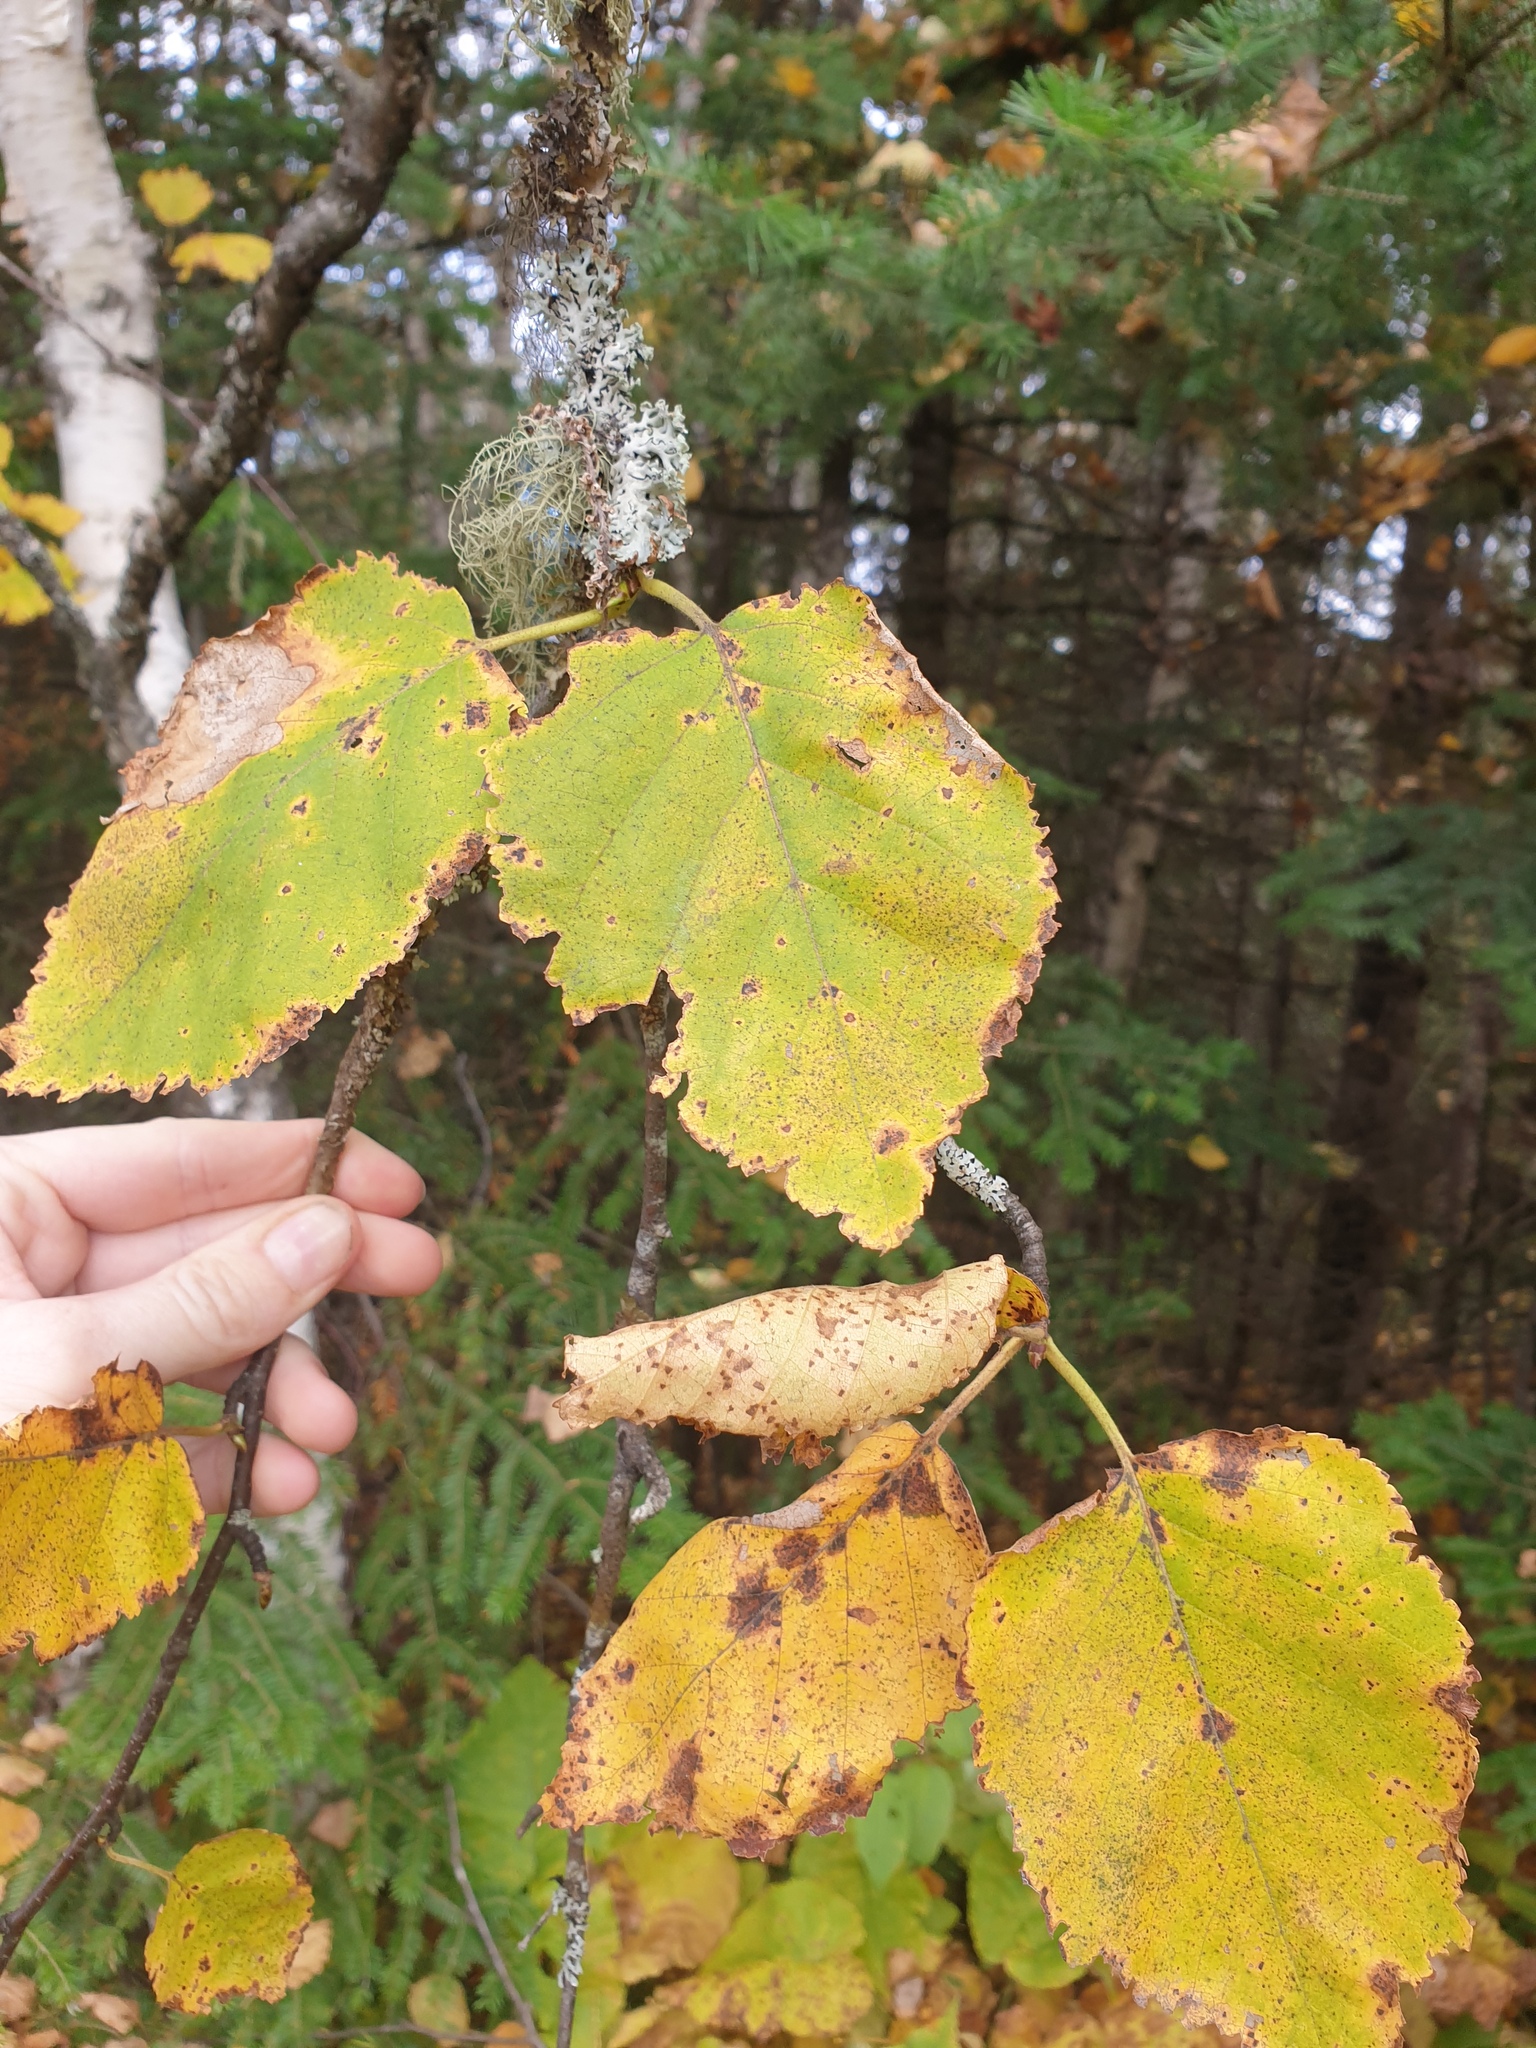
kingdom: Plantae
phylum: Tracheophyta
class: Magnoliopsida
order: Fagales
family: Betulaceae
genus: Betula
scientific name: Betula papyrifera
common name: Paper birch
